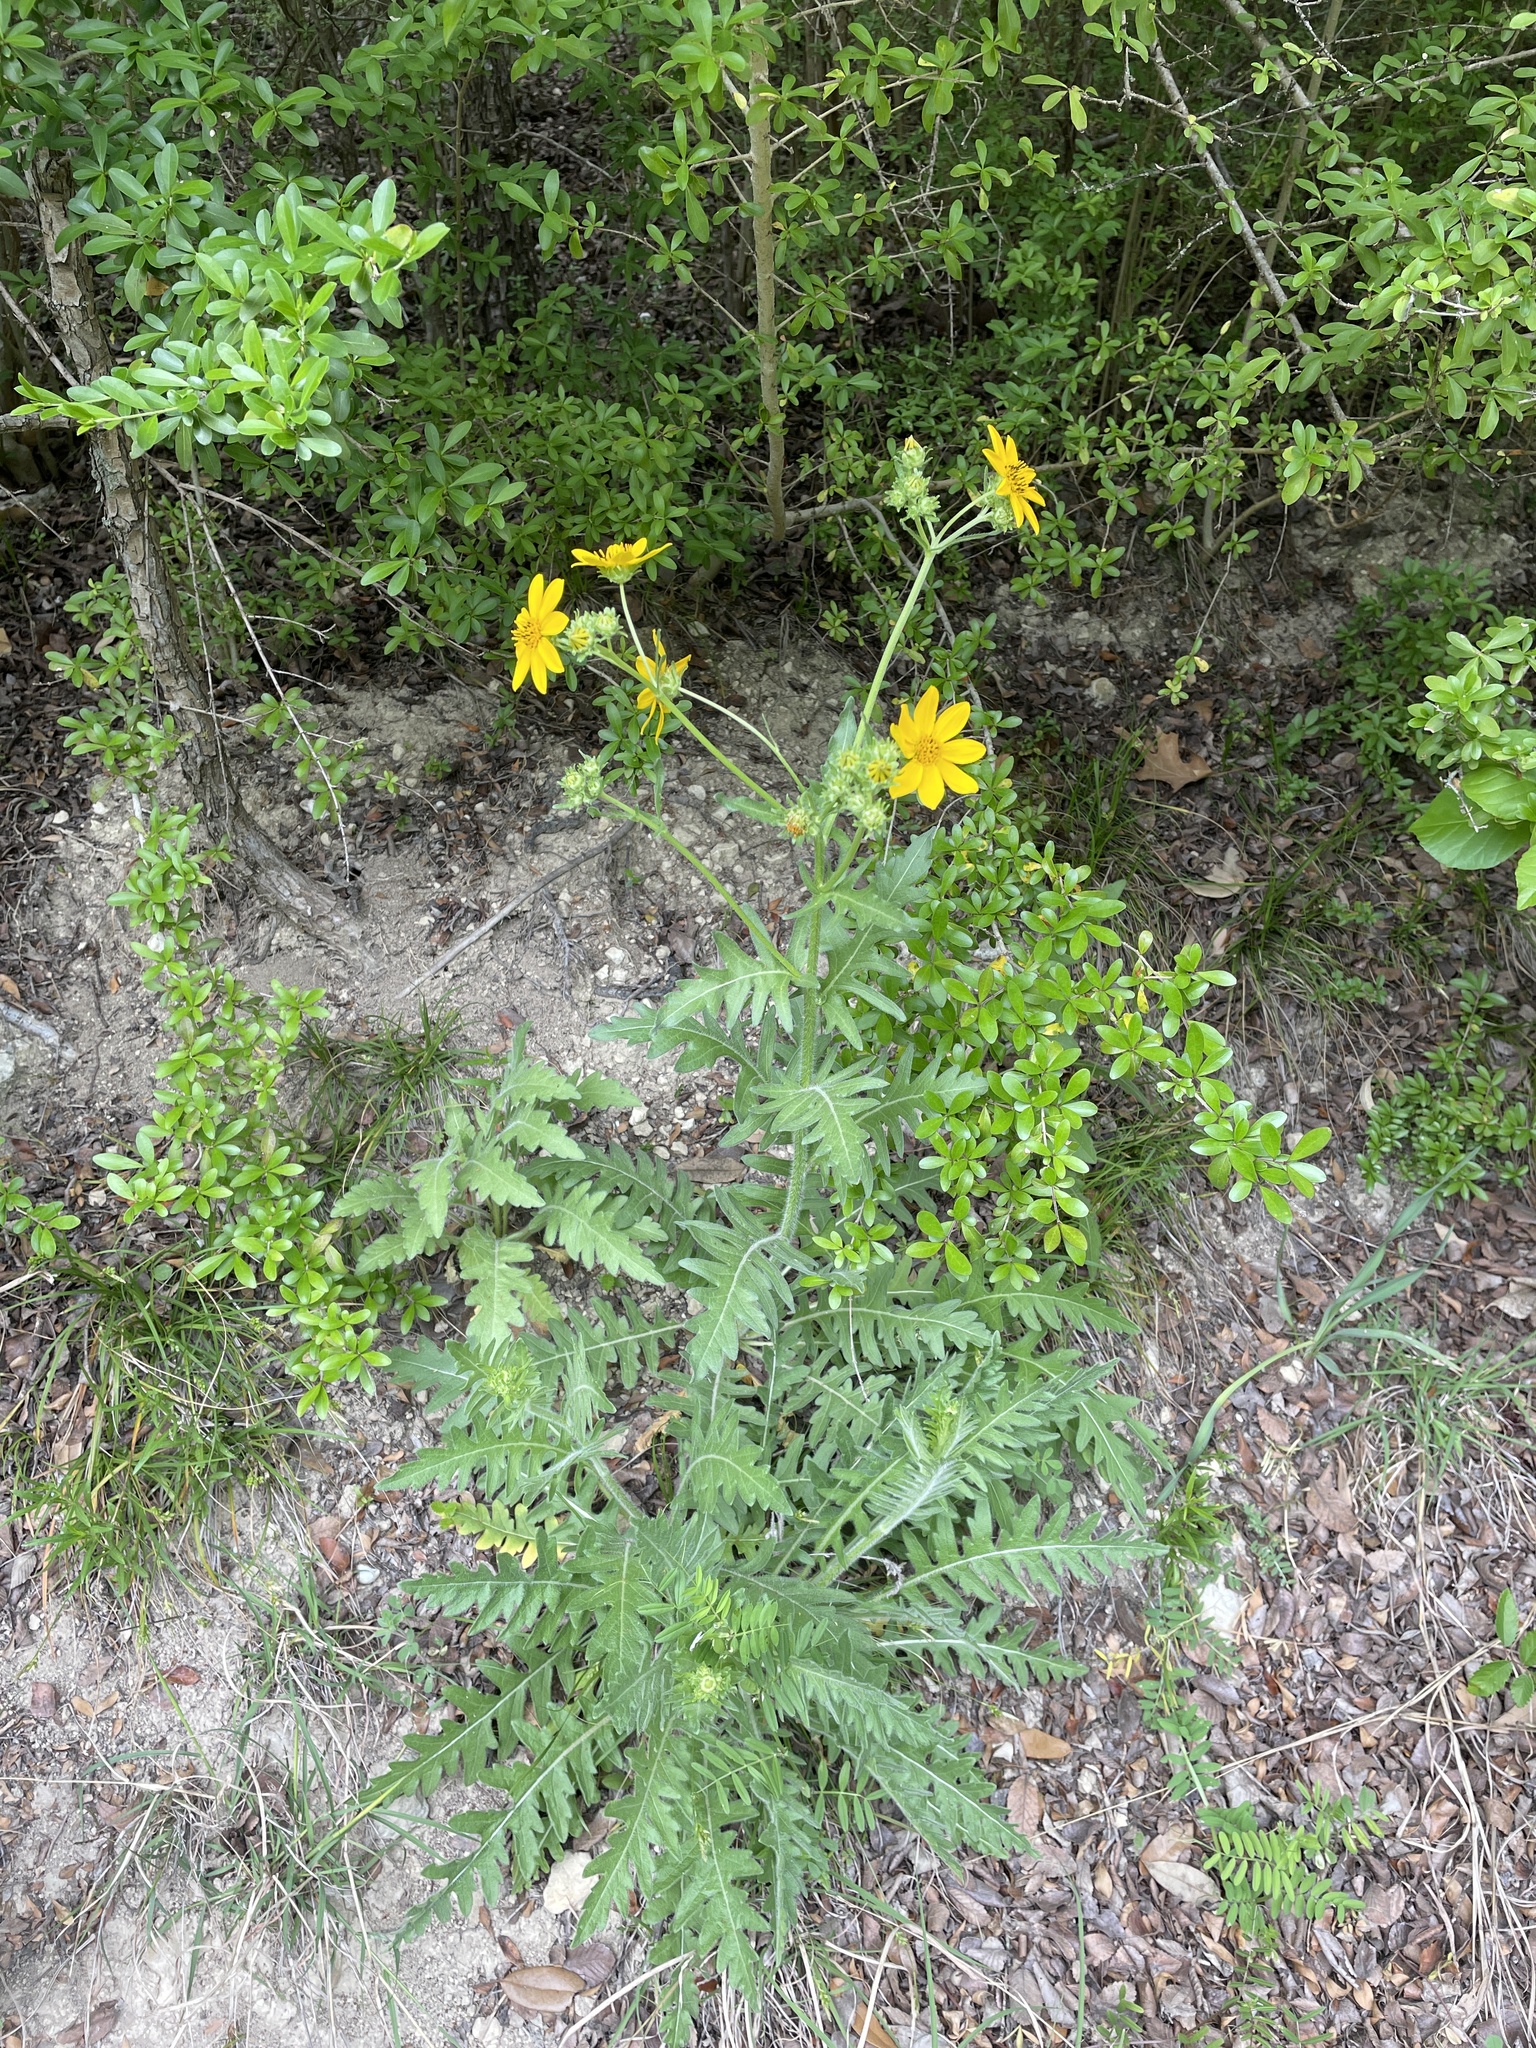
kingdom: Plantae
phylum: Tracheophyta
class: Magnoliopsida
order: Asterales
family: Asteraceae
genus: Engelmannia
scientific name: Engelmannia peristenia
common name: Engelmann's daisy
